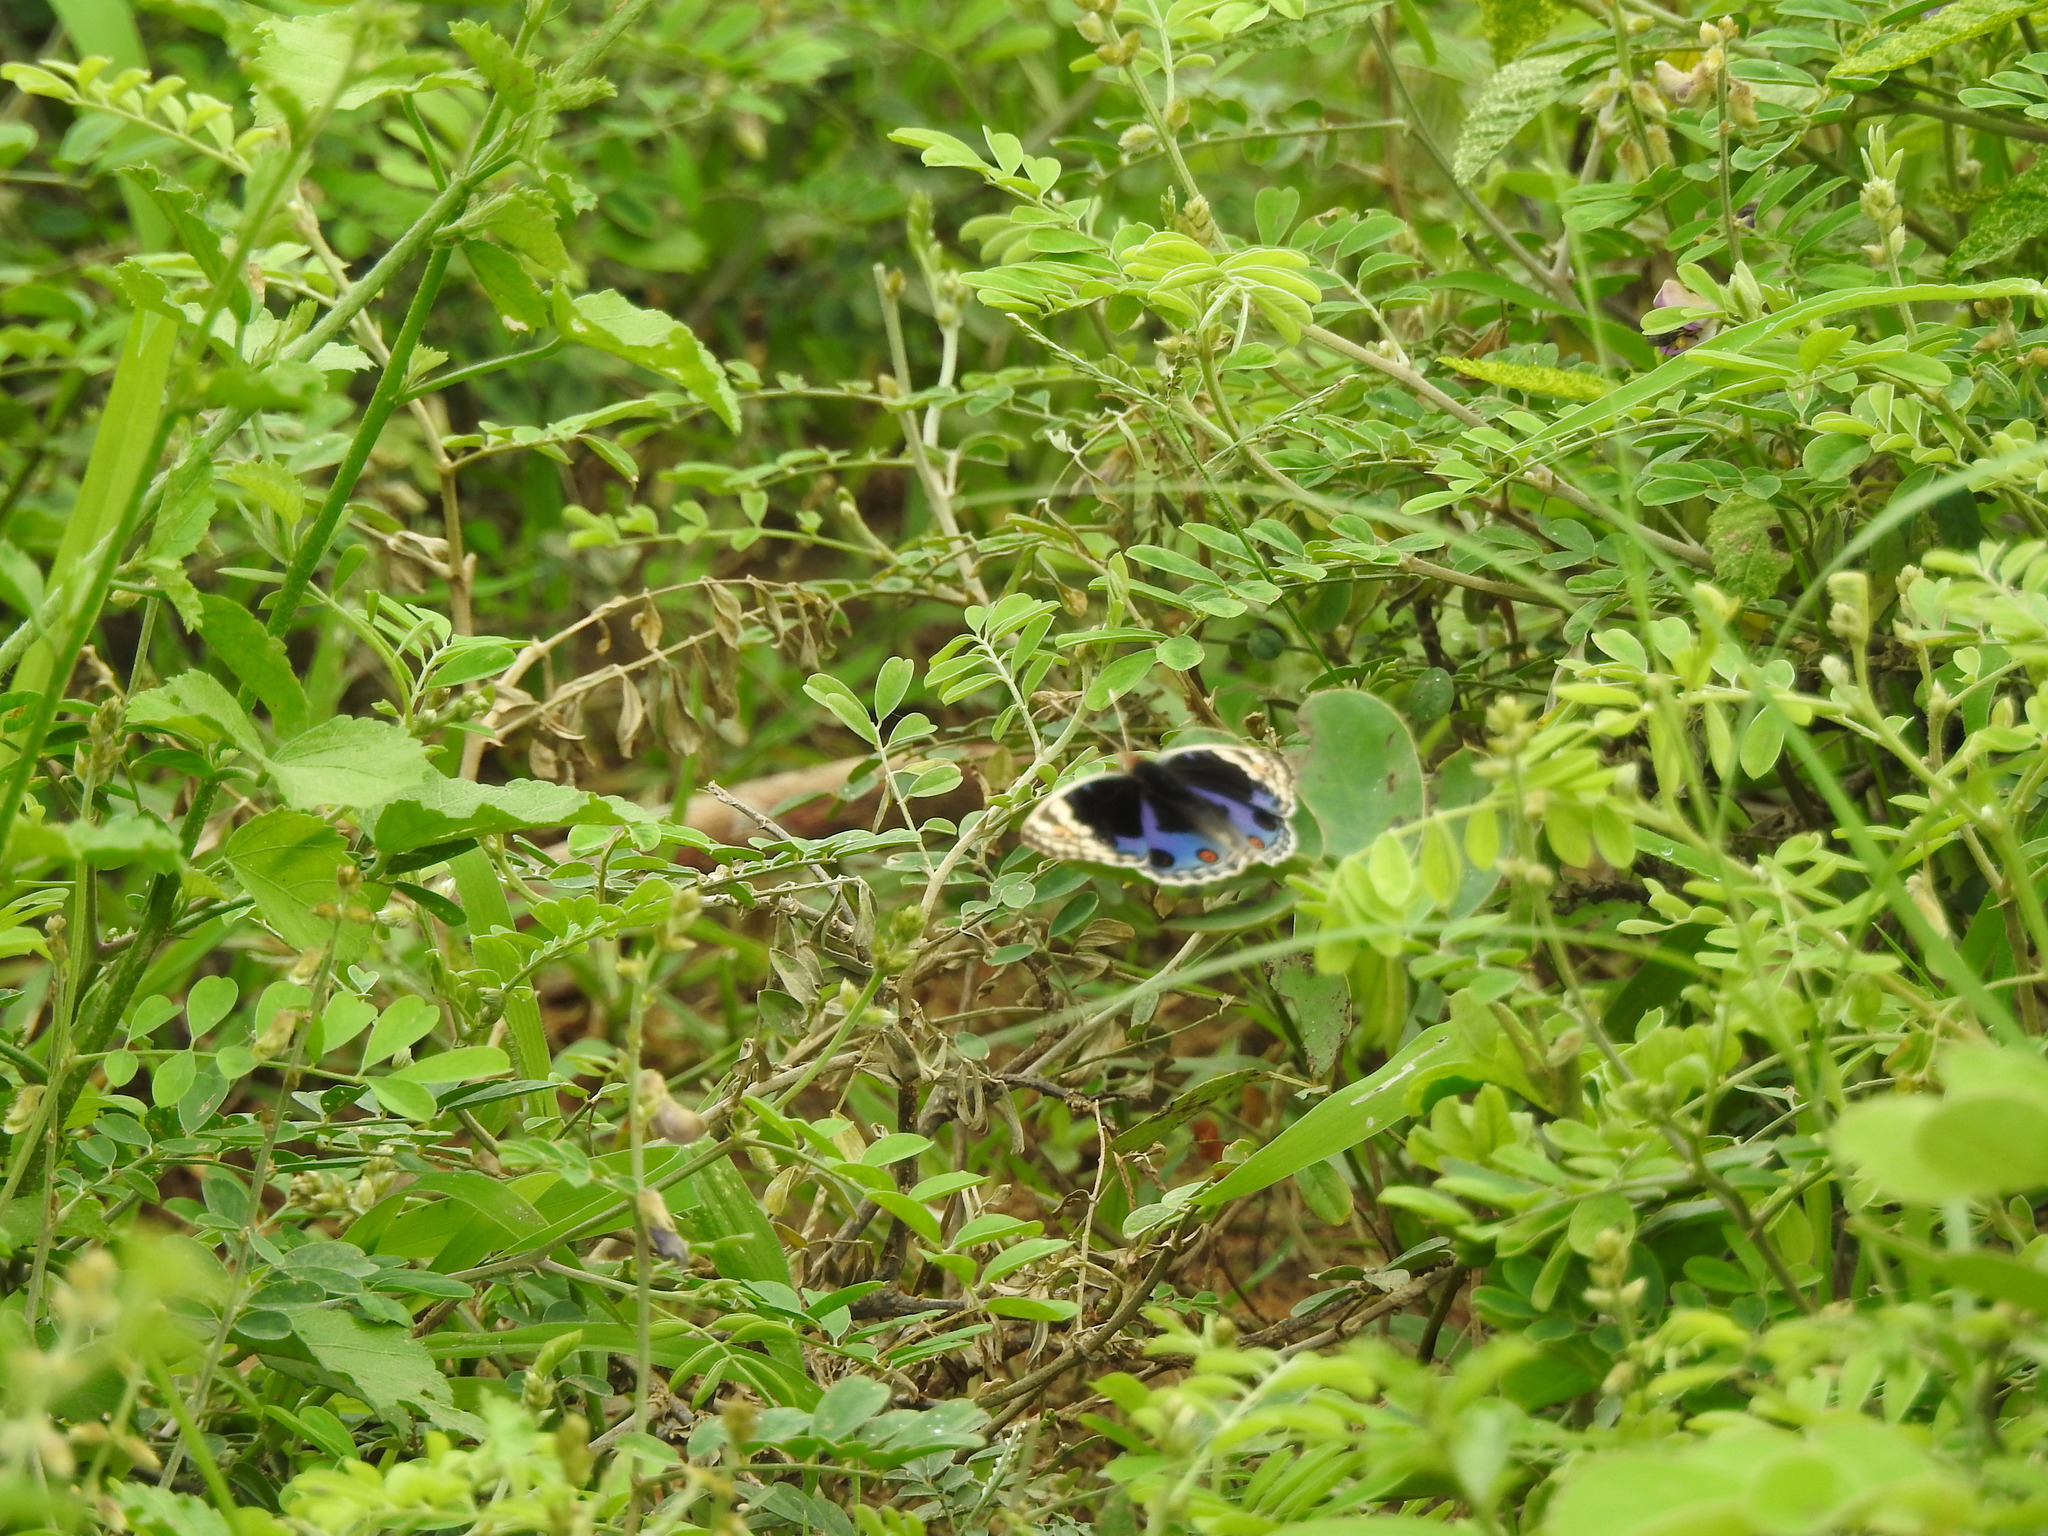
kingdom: Animalia
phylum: Arthropoda
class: Insecta
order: Lepidoptera
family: Nymphalidae
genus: Junonia
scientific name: Junonia orithya
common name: Blue pansy
